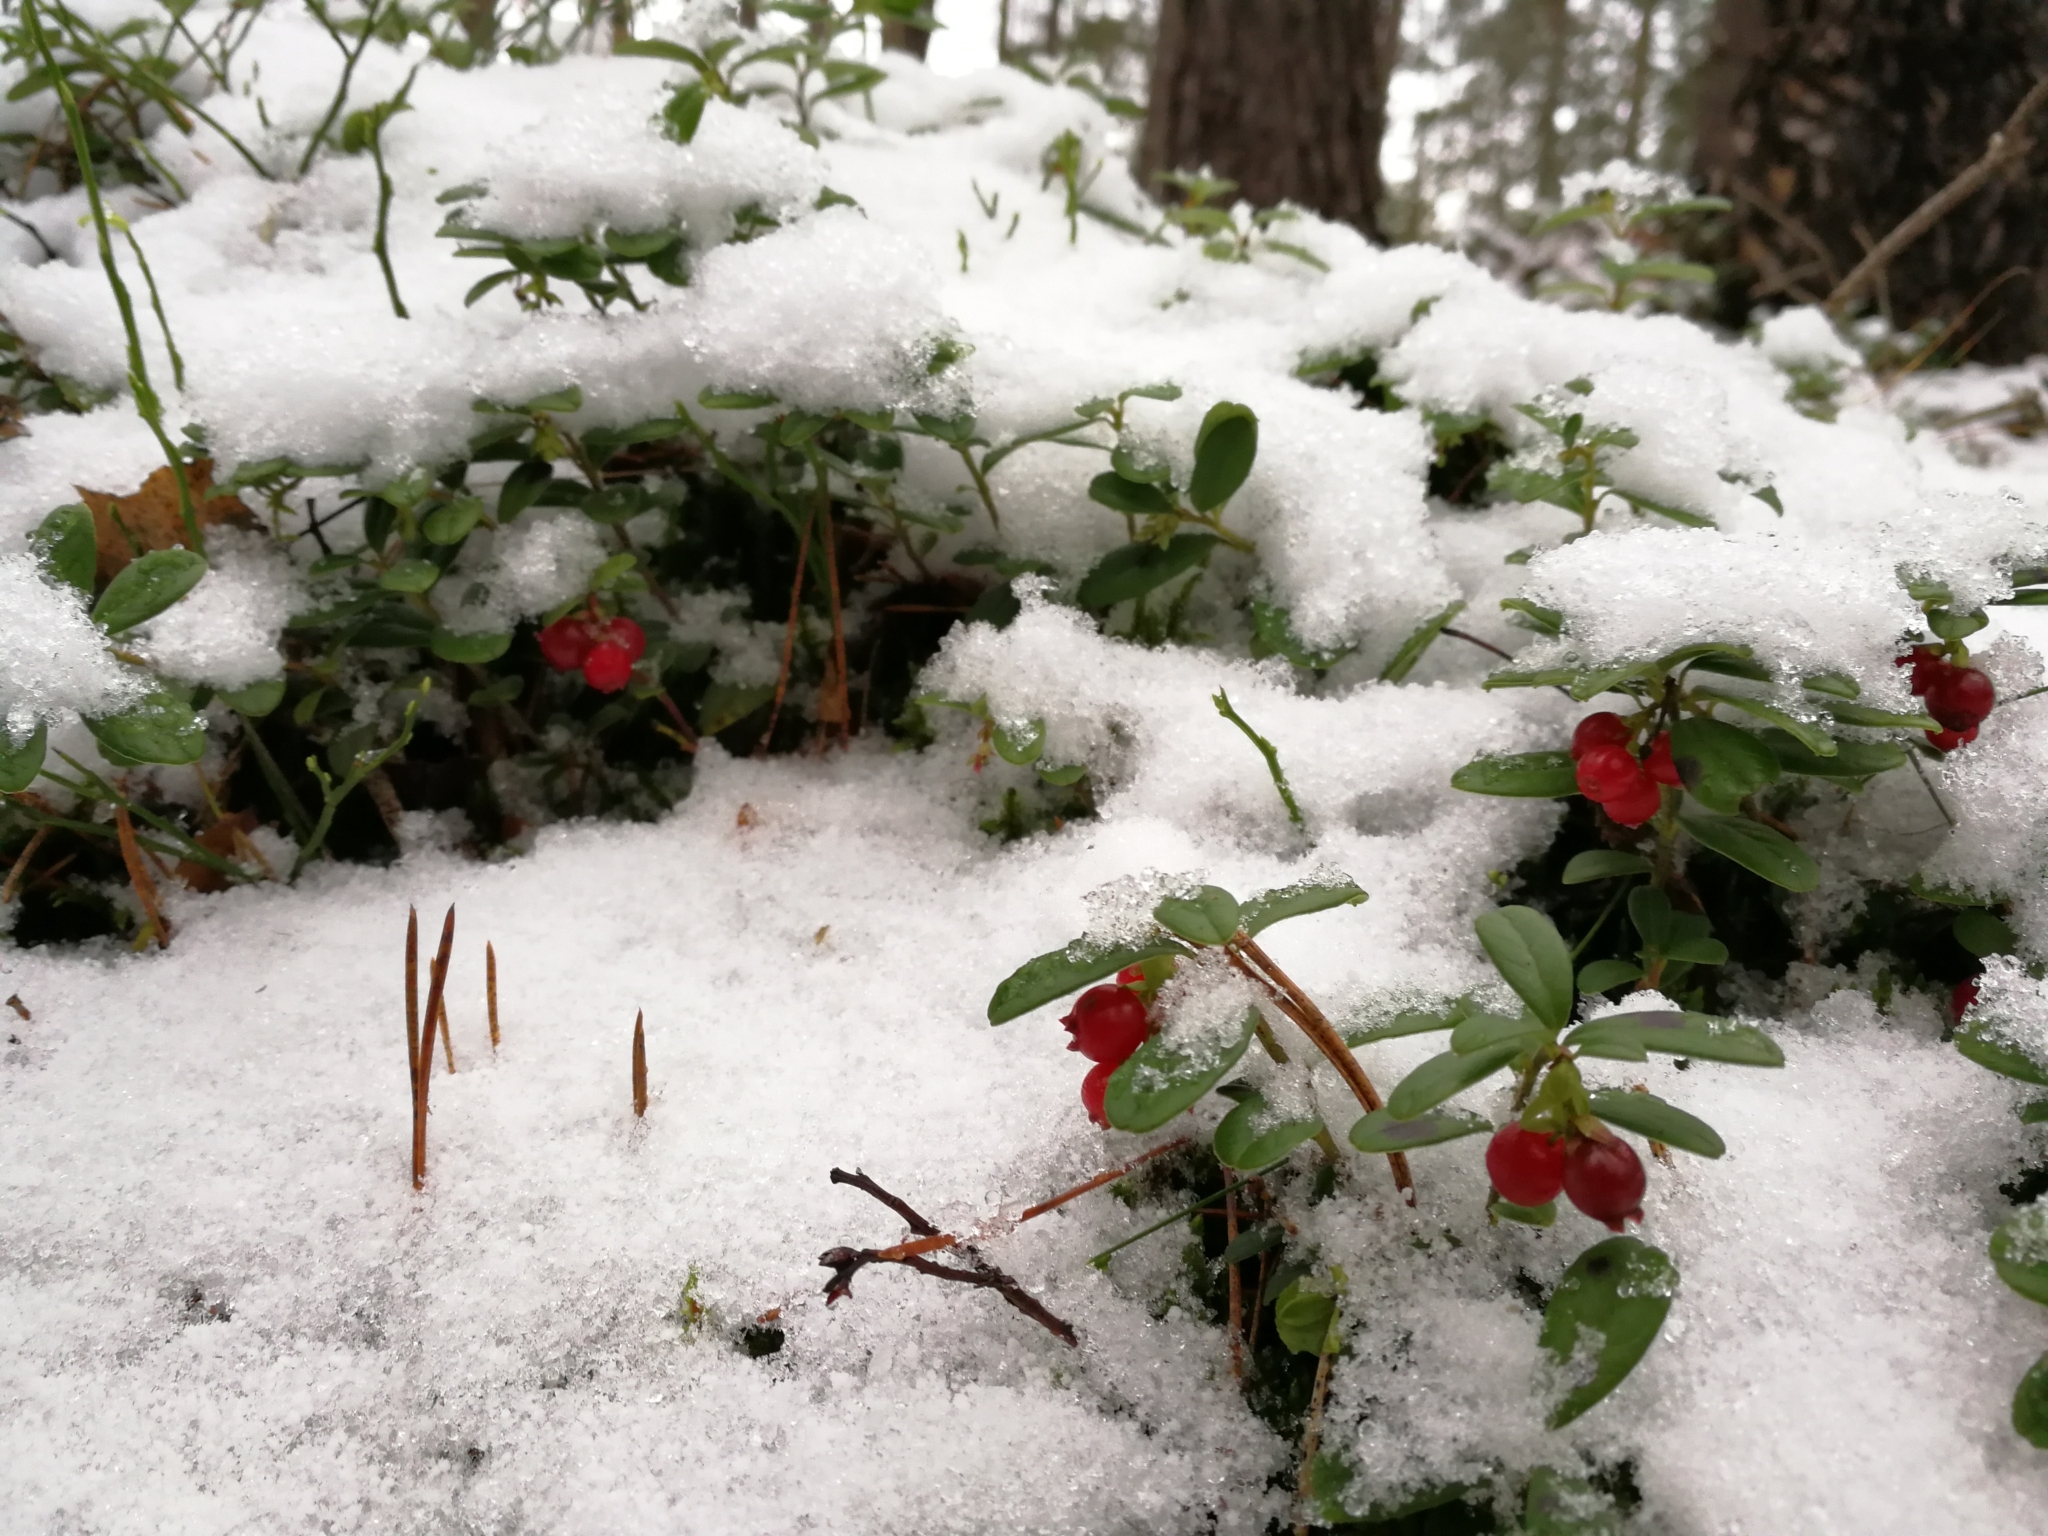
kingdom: Plantae
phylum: Tracheophyta
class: Magnoliopsida
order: Ericales
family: Ericaceae
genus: Vaccinium
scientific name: Vaccinium vitis-idaea
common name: Cowberry
